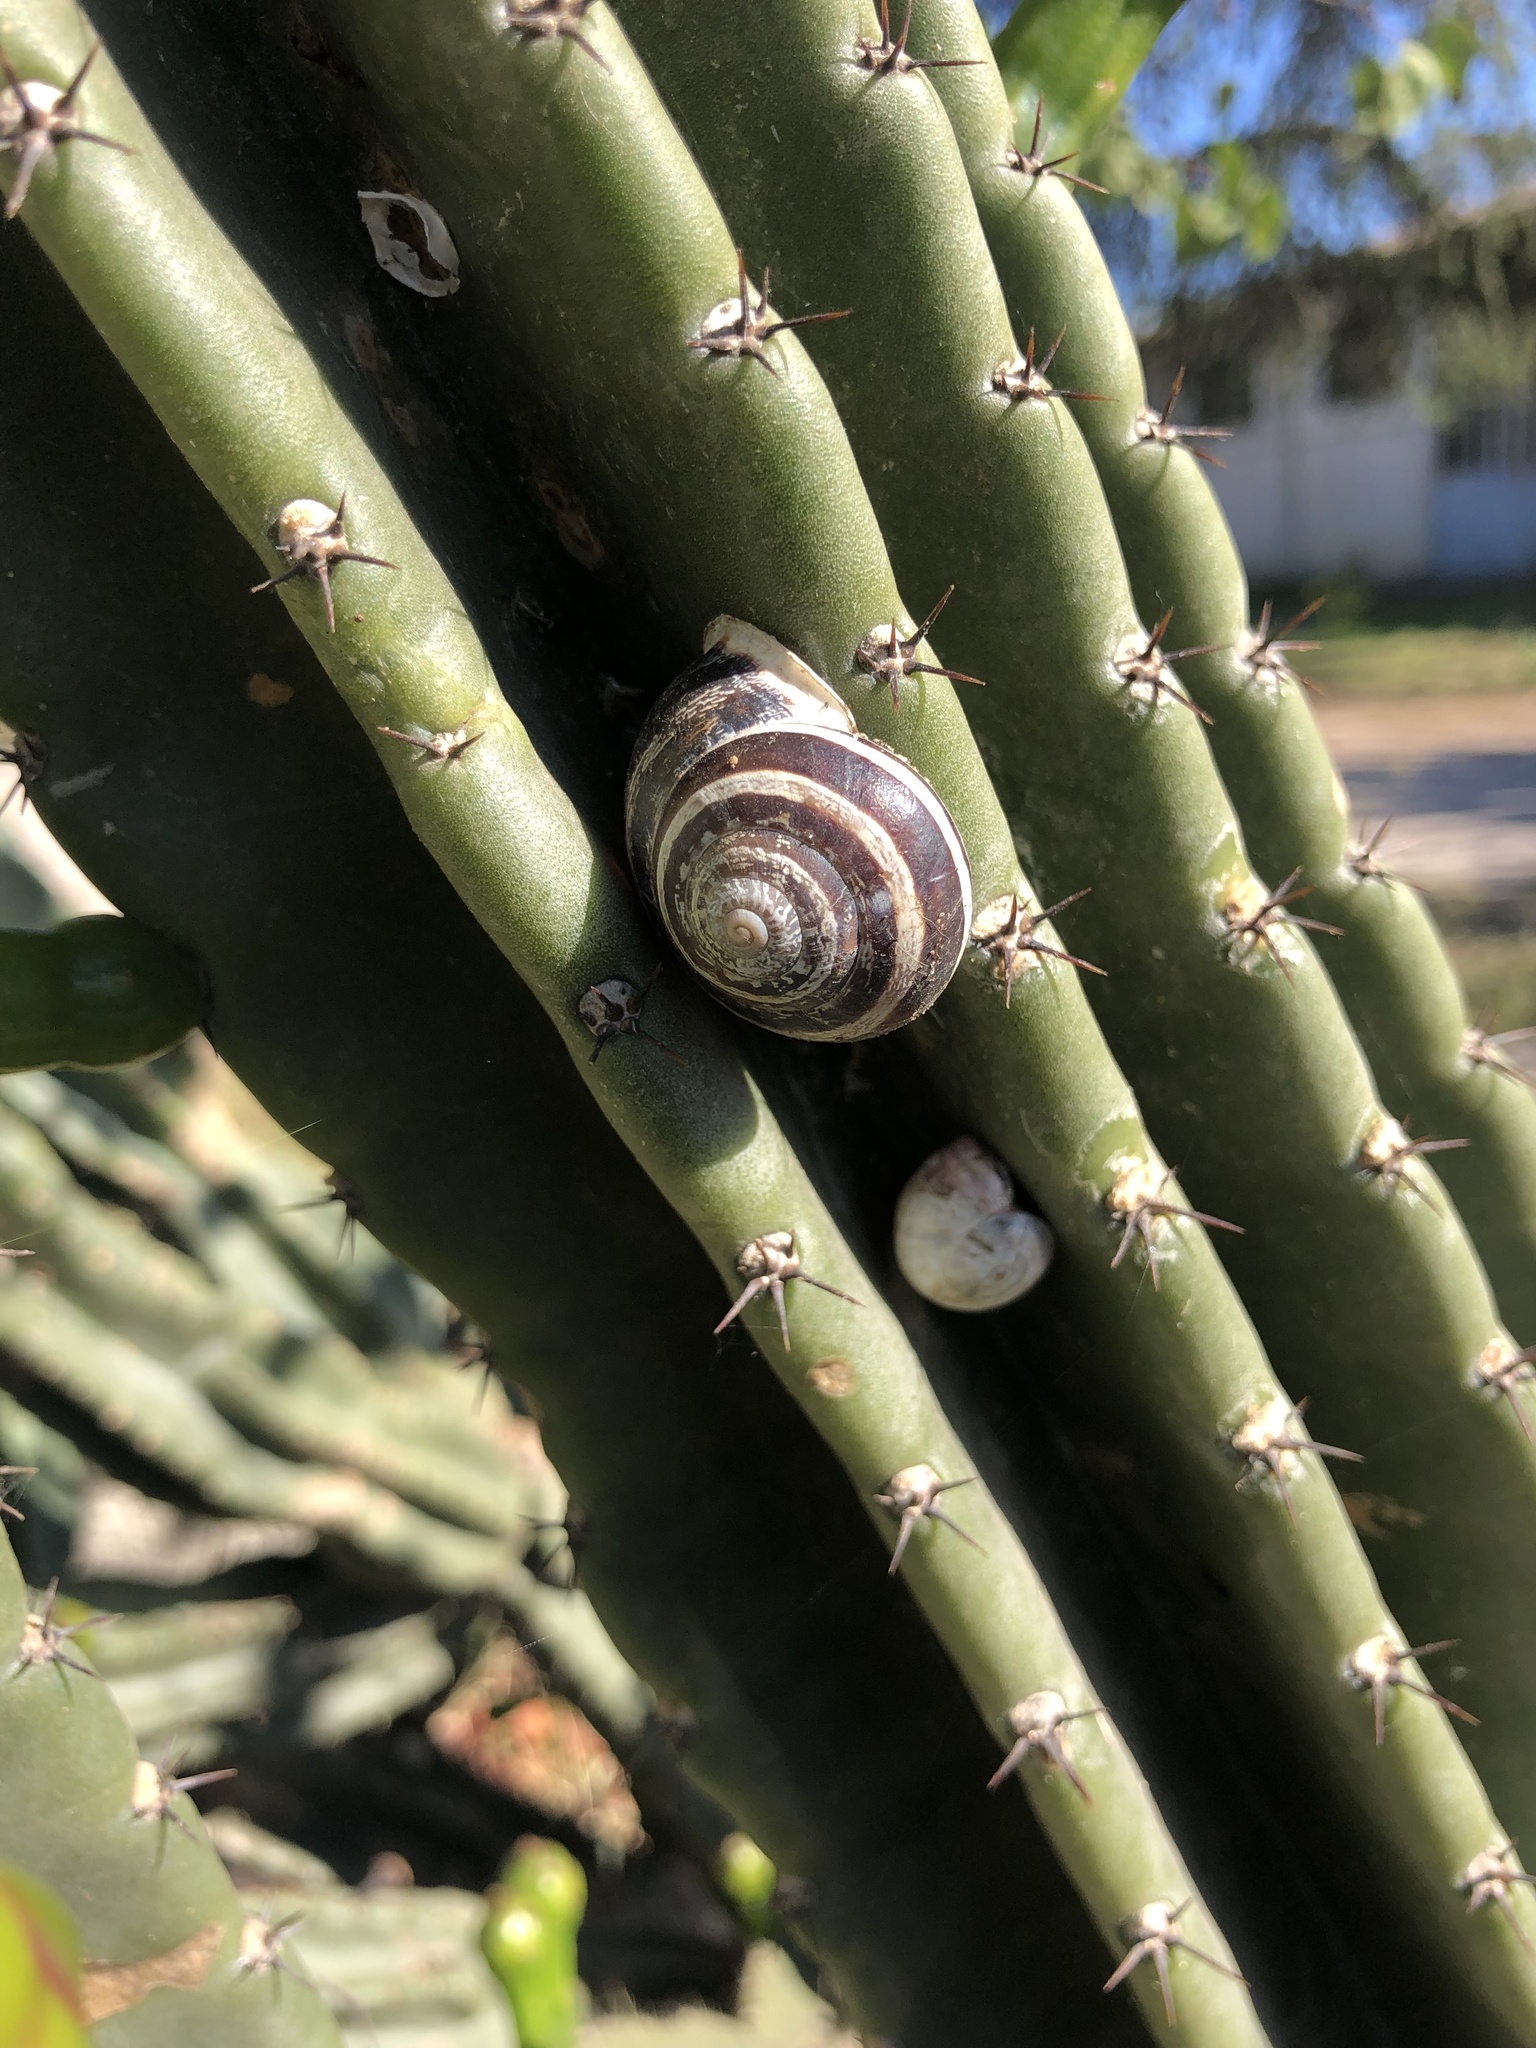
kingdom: Animalia
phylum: Mollusca
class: Gastropoda
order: Stylommatophora
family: Helicidae
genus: Eobania
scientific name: Eobania vermiculata
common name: Chocolateband snail
